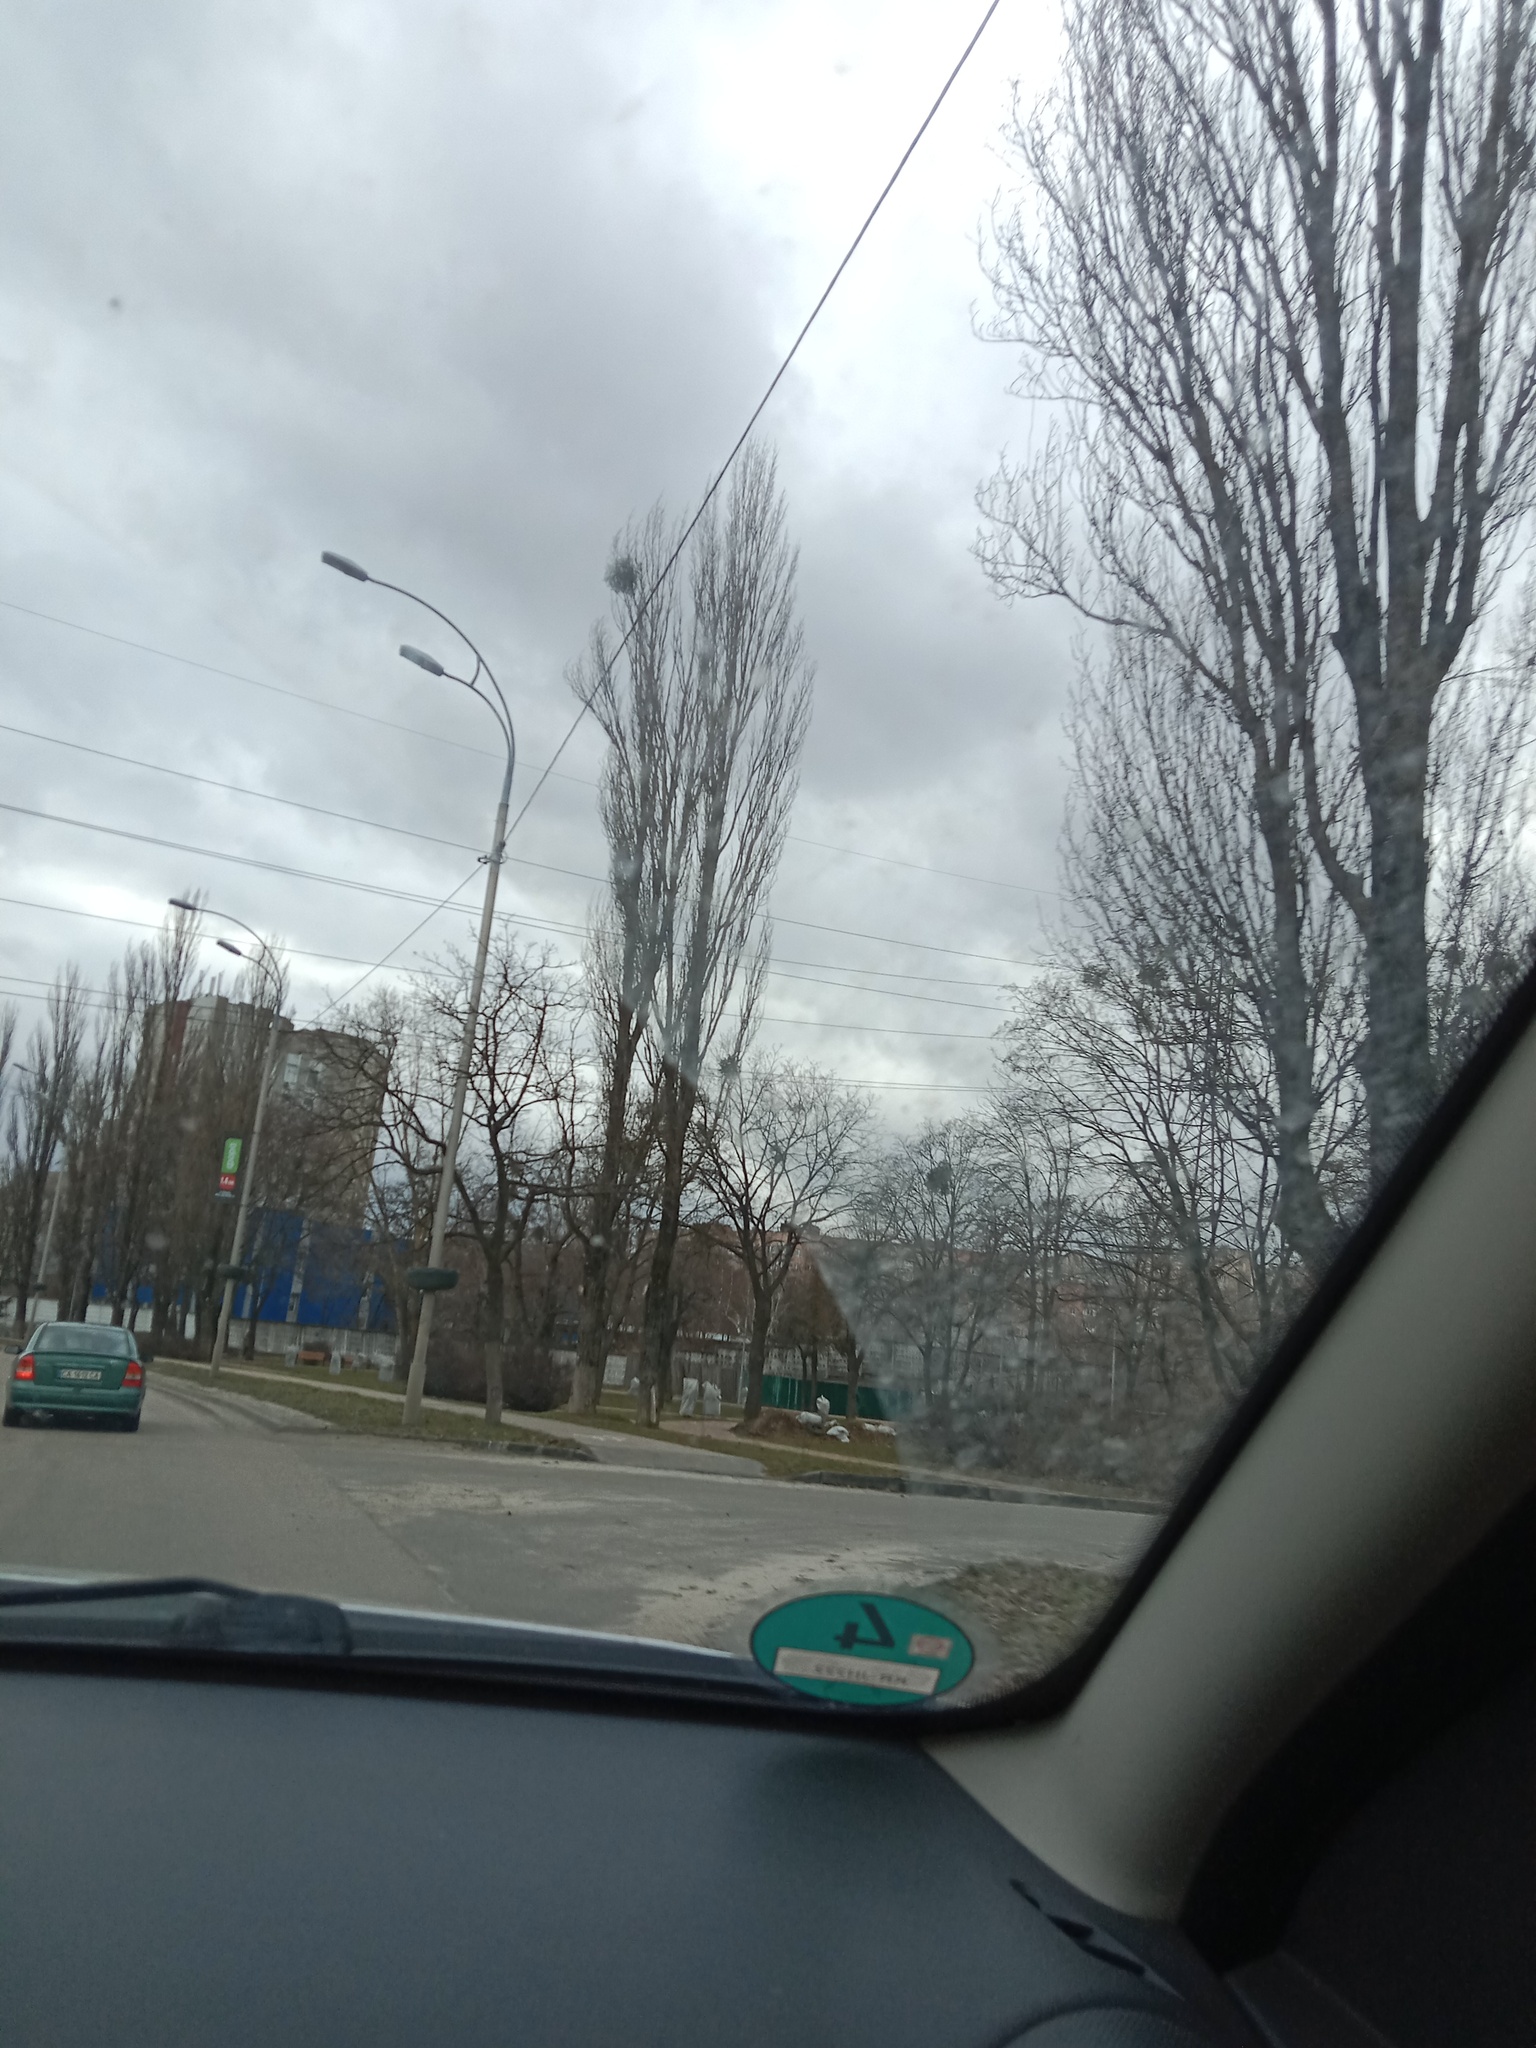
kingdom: Plantae
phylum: Tracheophyta
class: Magnoliopsida
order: Santalales
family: Viscaceae
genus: Viscum
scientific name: Viscum album
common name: Mistletoe
